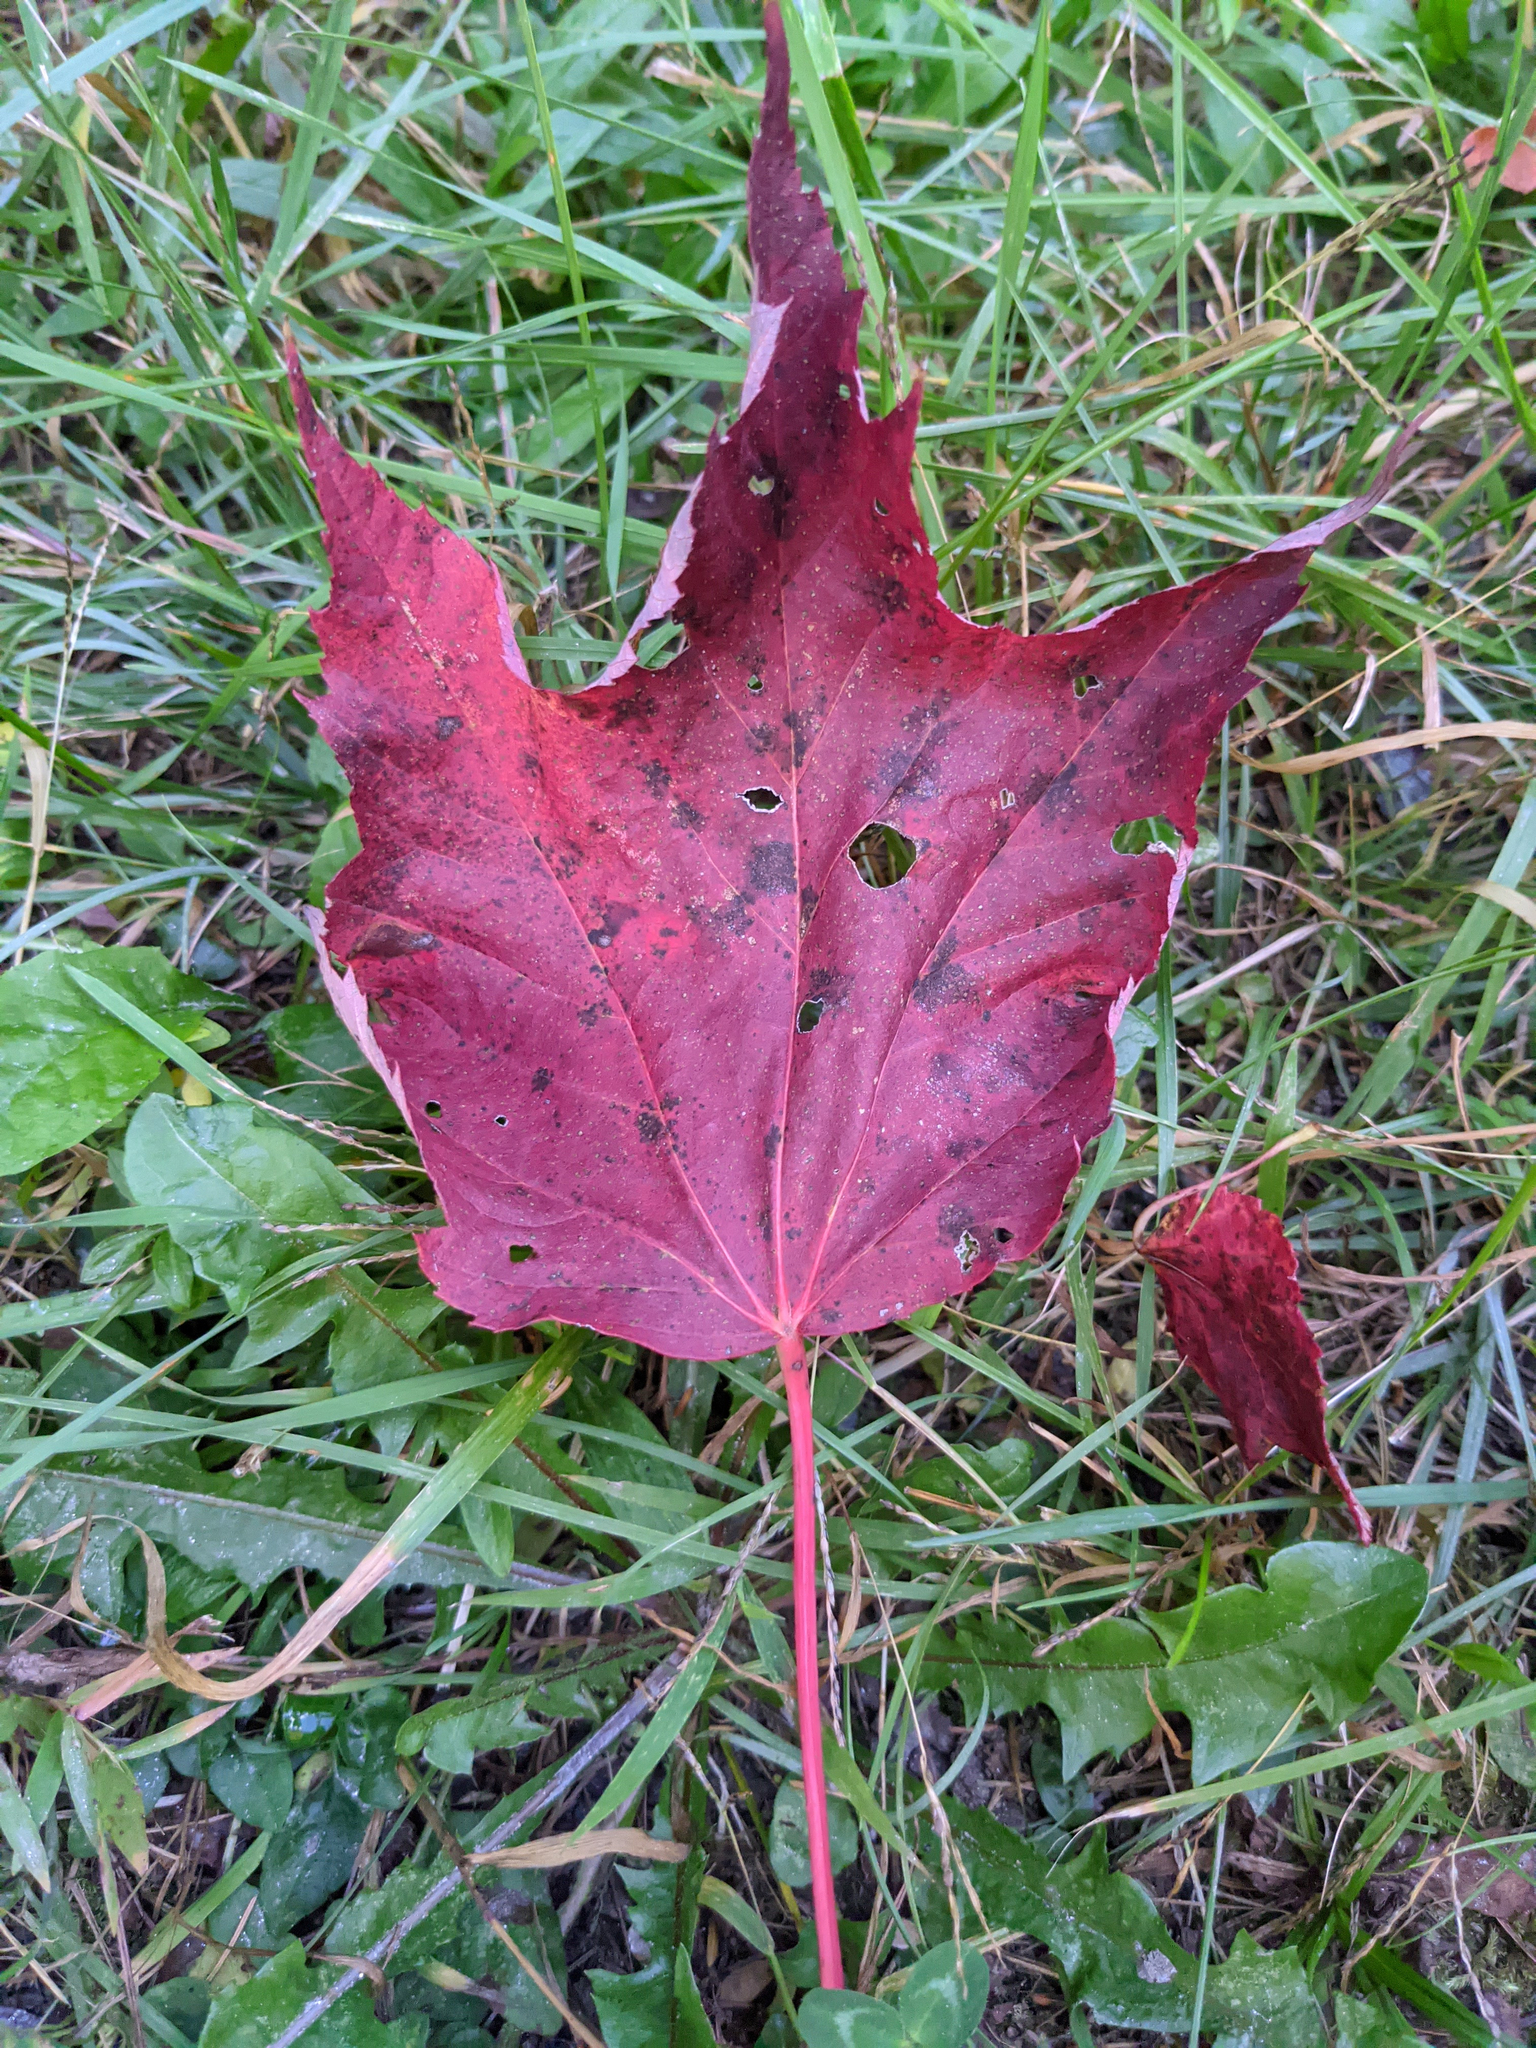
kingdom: Plantae
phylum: Tracheophyta
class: Magnoliopsida
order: Sapindales
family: Sapindaceae
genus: Acer
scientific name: Acer rubrum
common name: Red maple
